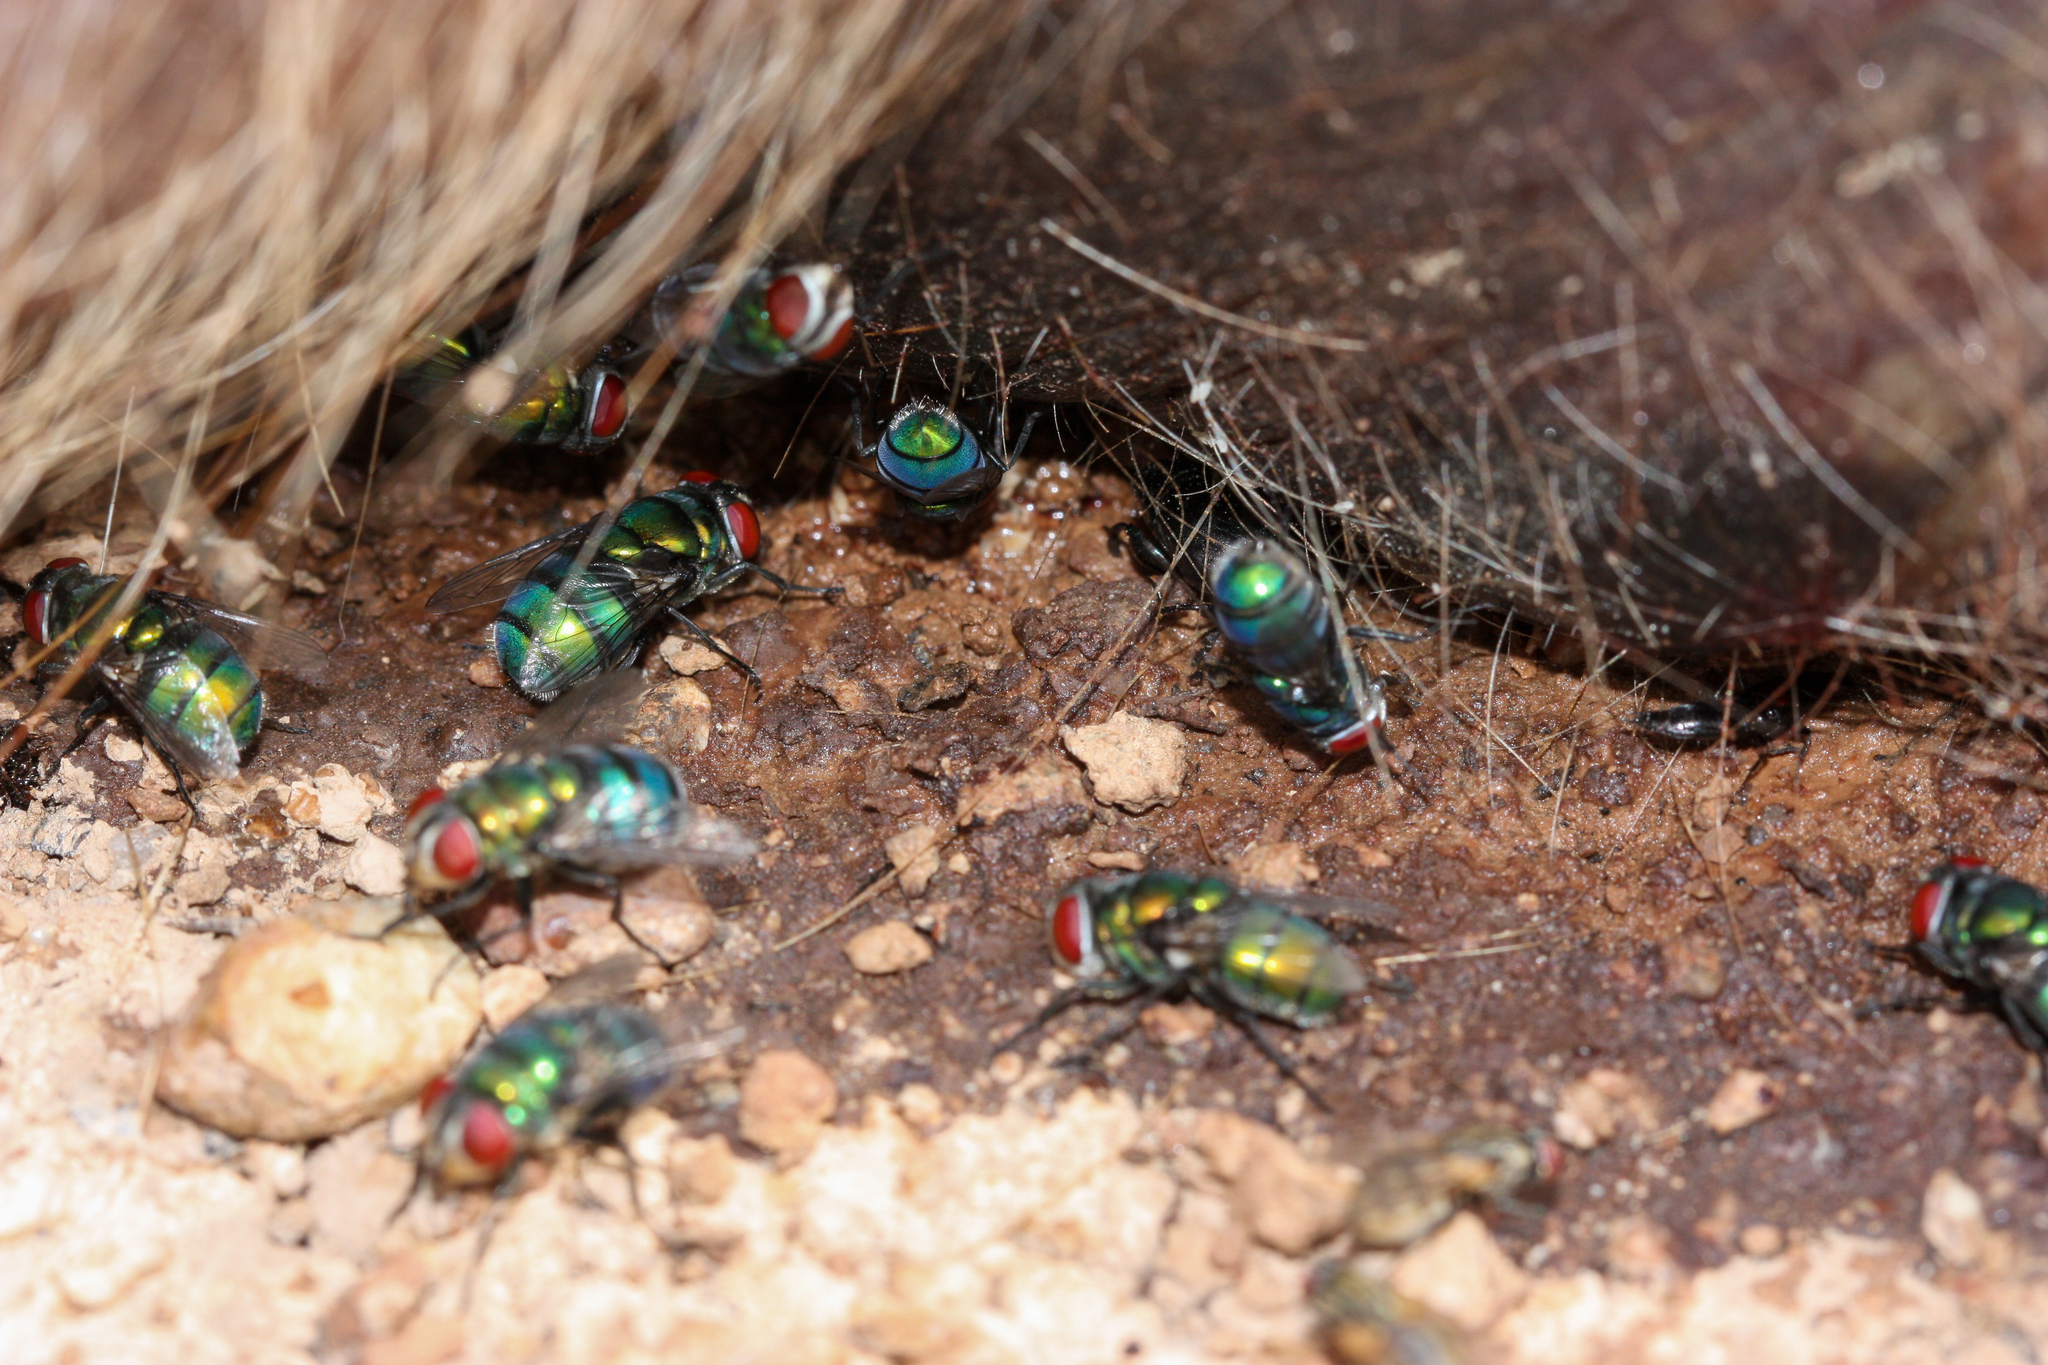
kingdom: Animalia
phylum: Arthropoda
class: Insecta
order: Diptera
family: Calliphoridae
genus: Chrysomya
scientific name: Chrysomya rufifacies
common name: Blow fly
